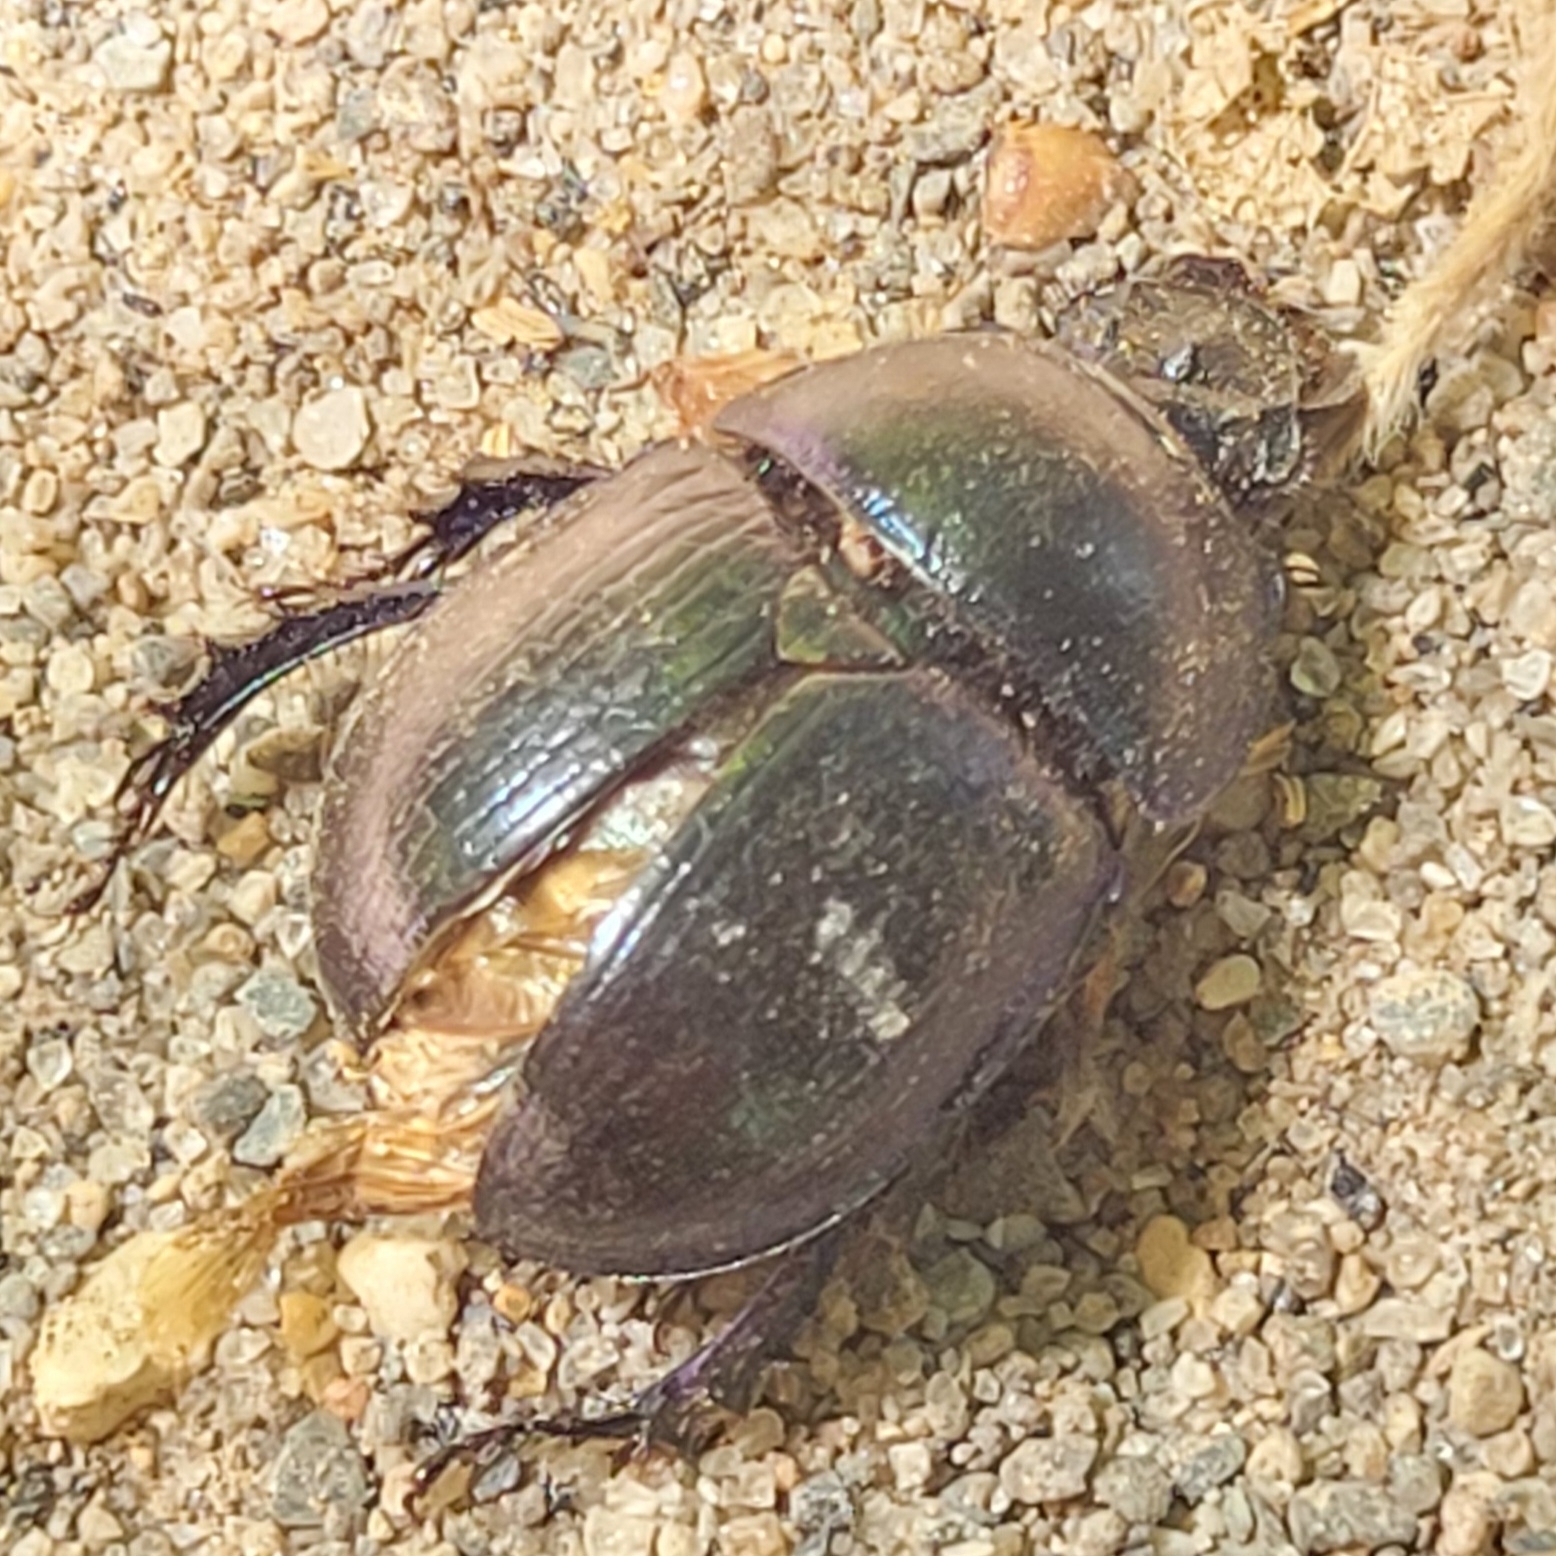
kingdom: Animalia
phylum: Arthropoda
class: Insecta
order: Coleoptera
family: Geotrupidae
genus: Anoplotrupes
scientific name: Anoplotrupes stercorosus
